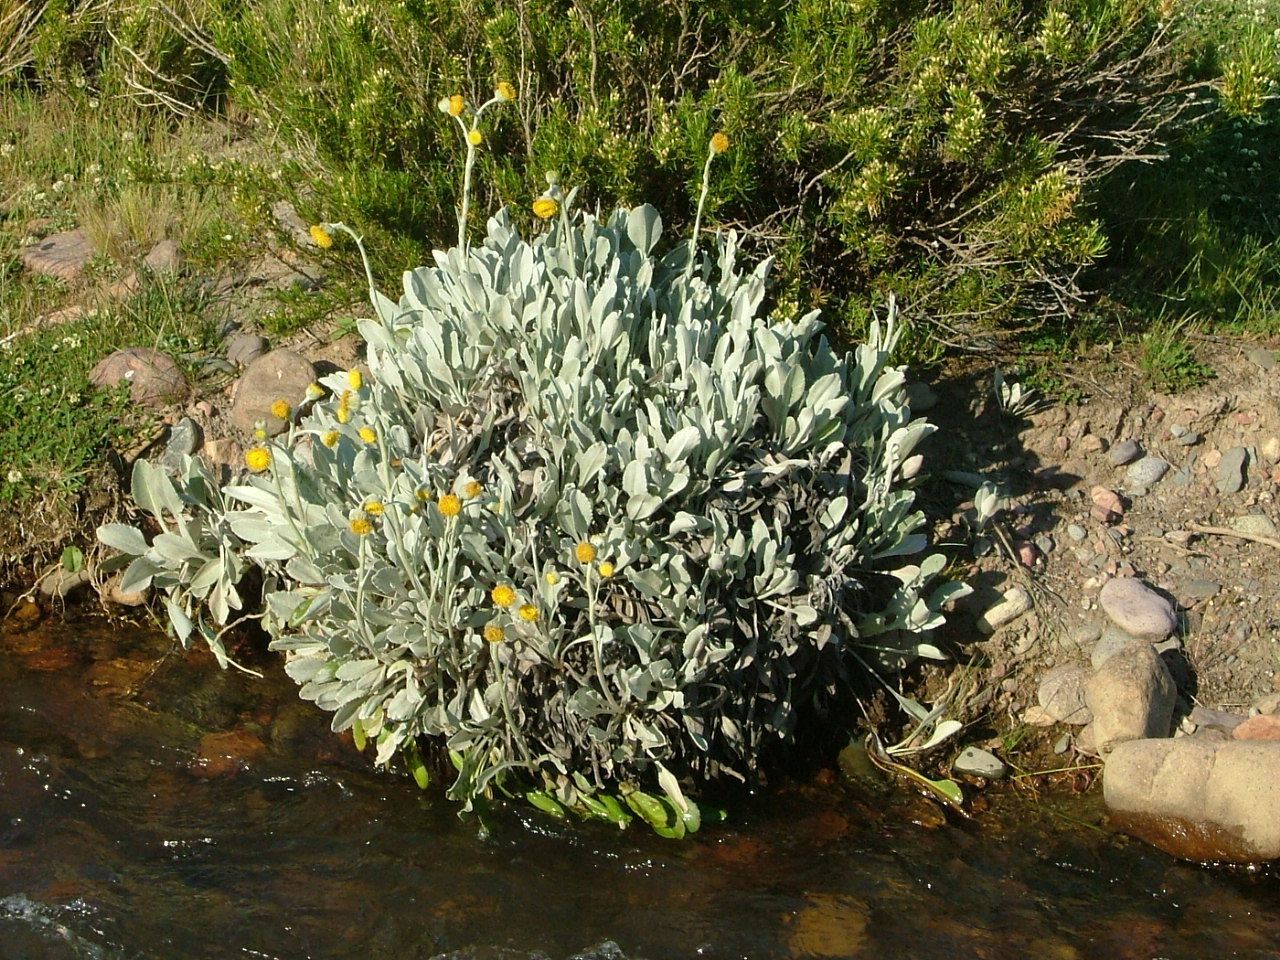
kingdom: Plantae
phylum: Tracheophyta
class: Magnoliopsida
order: Asterales
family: Asteraceae
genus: Senecio
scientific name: Senecio gilliesii
